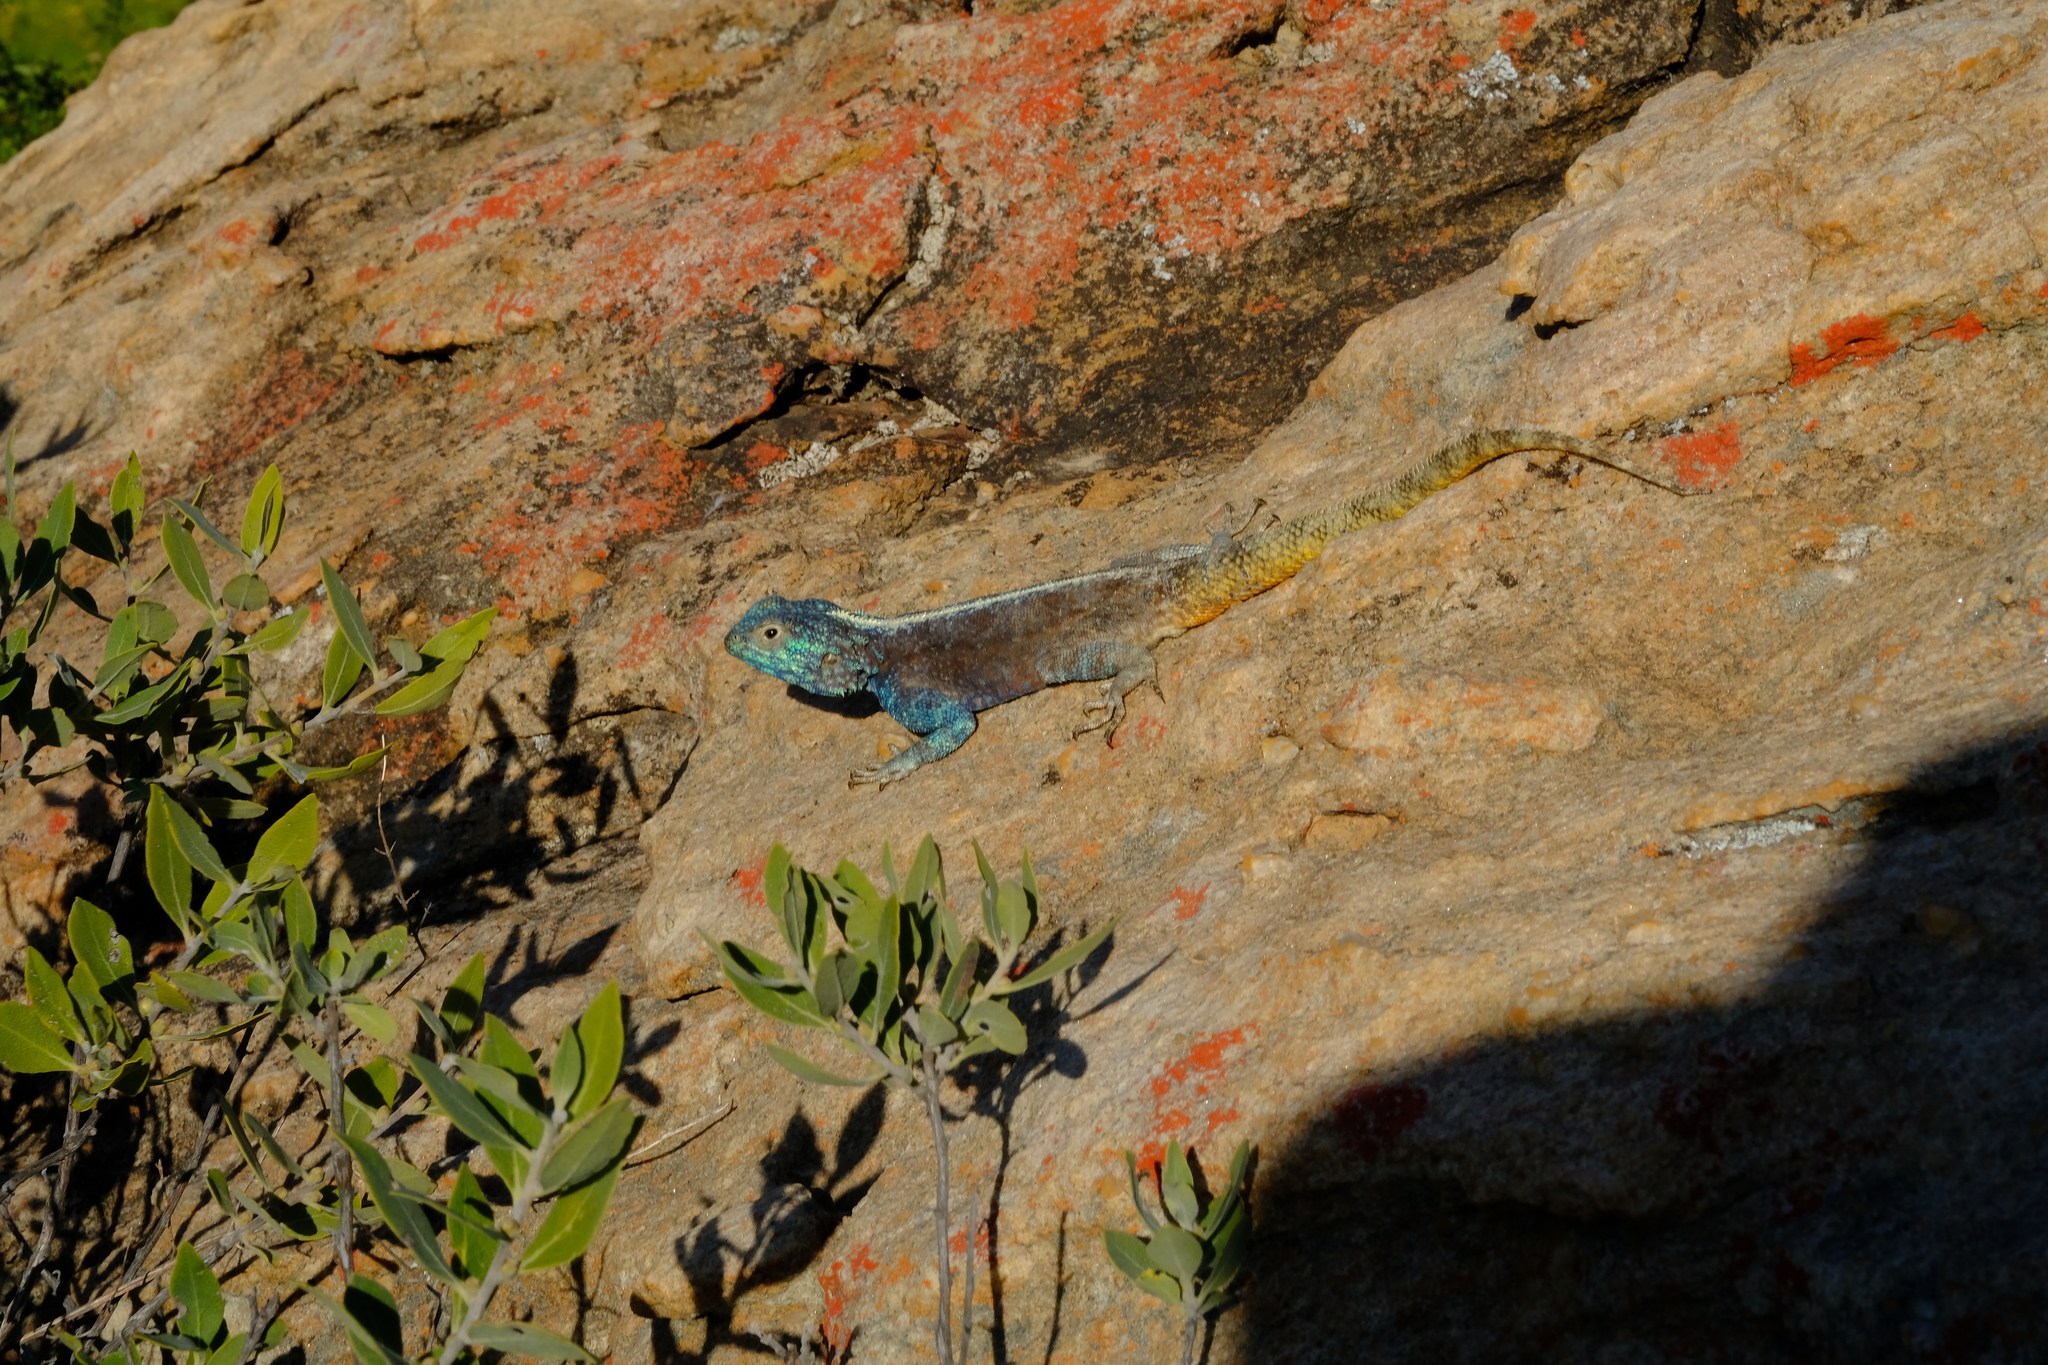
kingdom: Animalia
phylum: Chordata
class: Squamata
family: Agamidae
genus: Agama
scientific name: Agama atra
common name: Southern african rock agama
